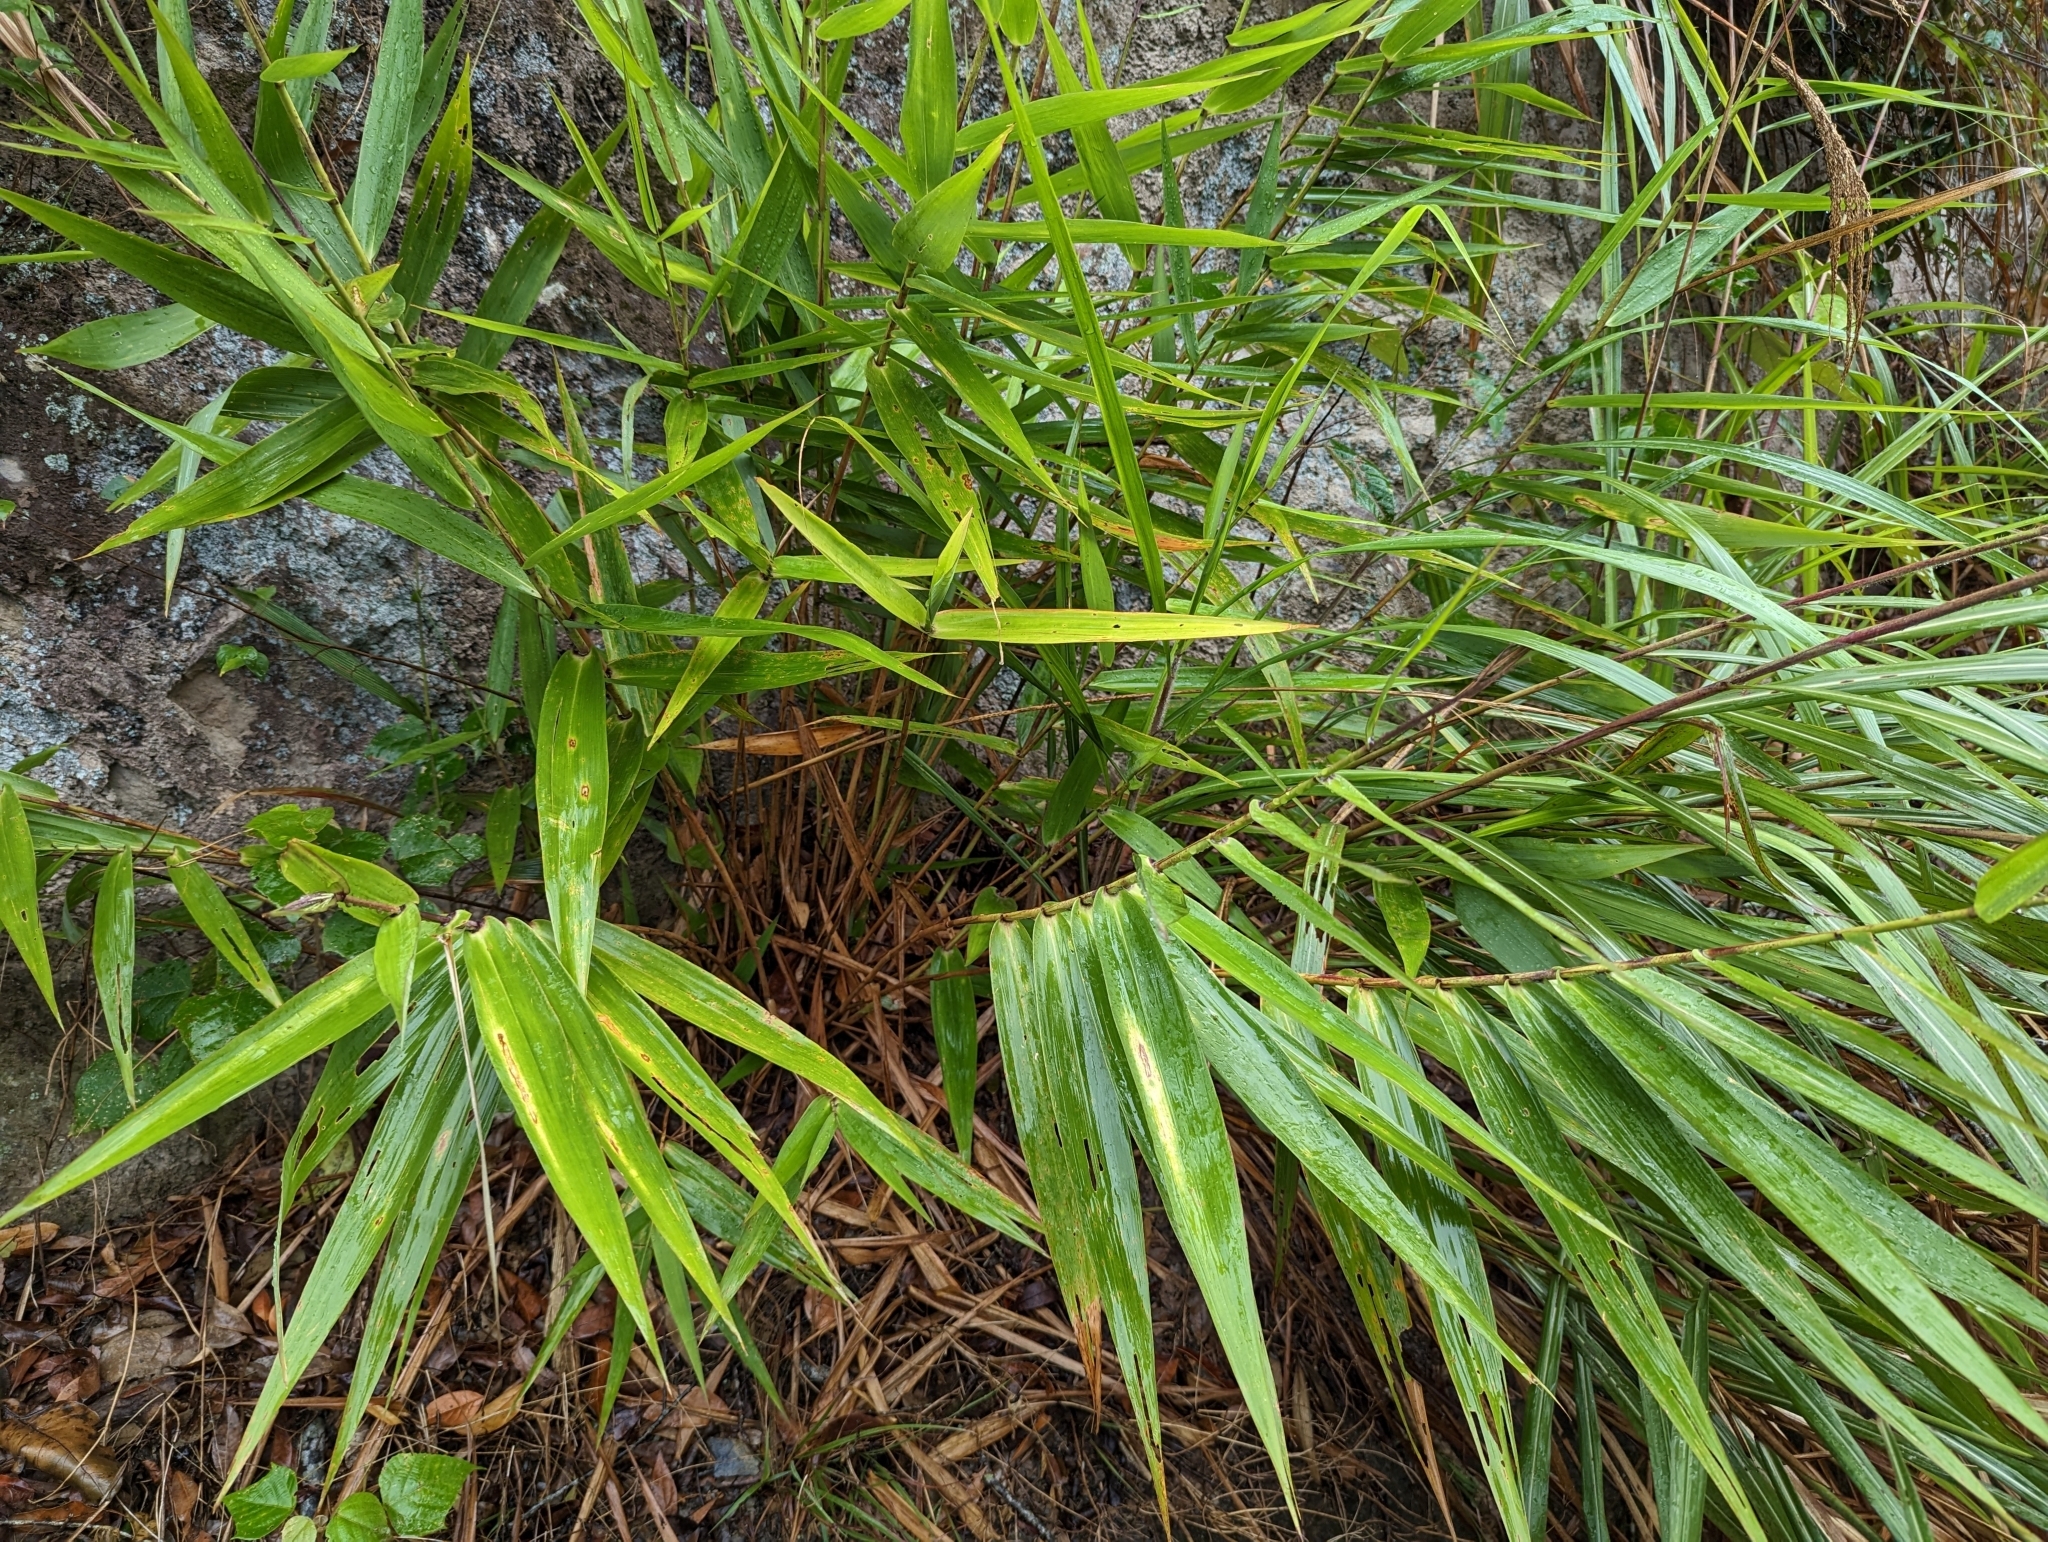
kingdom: Plantae
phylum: Tracheophyta
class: Liliopsida
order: Poales
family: Poaceae
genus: Thysanolaena
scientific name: Thysanolaena latifolia
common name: Tiger grass
